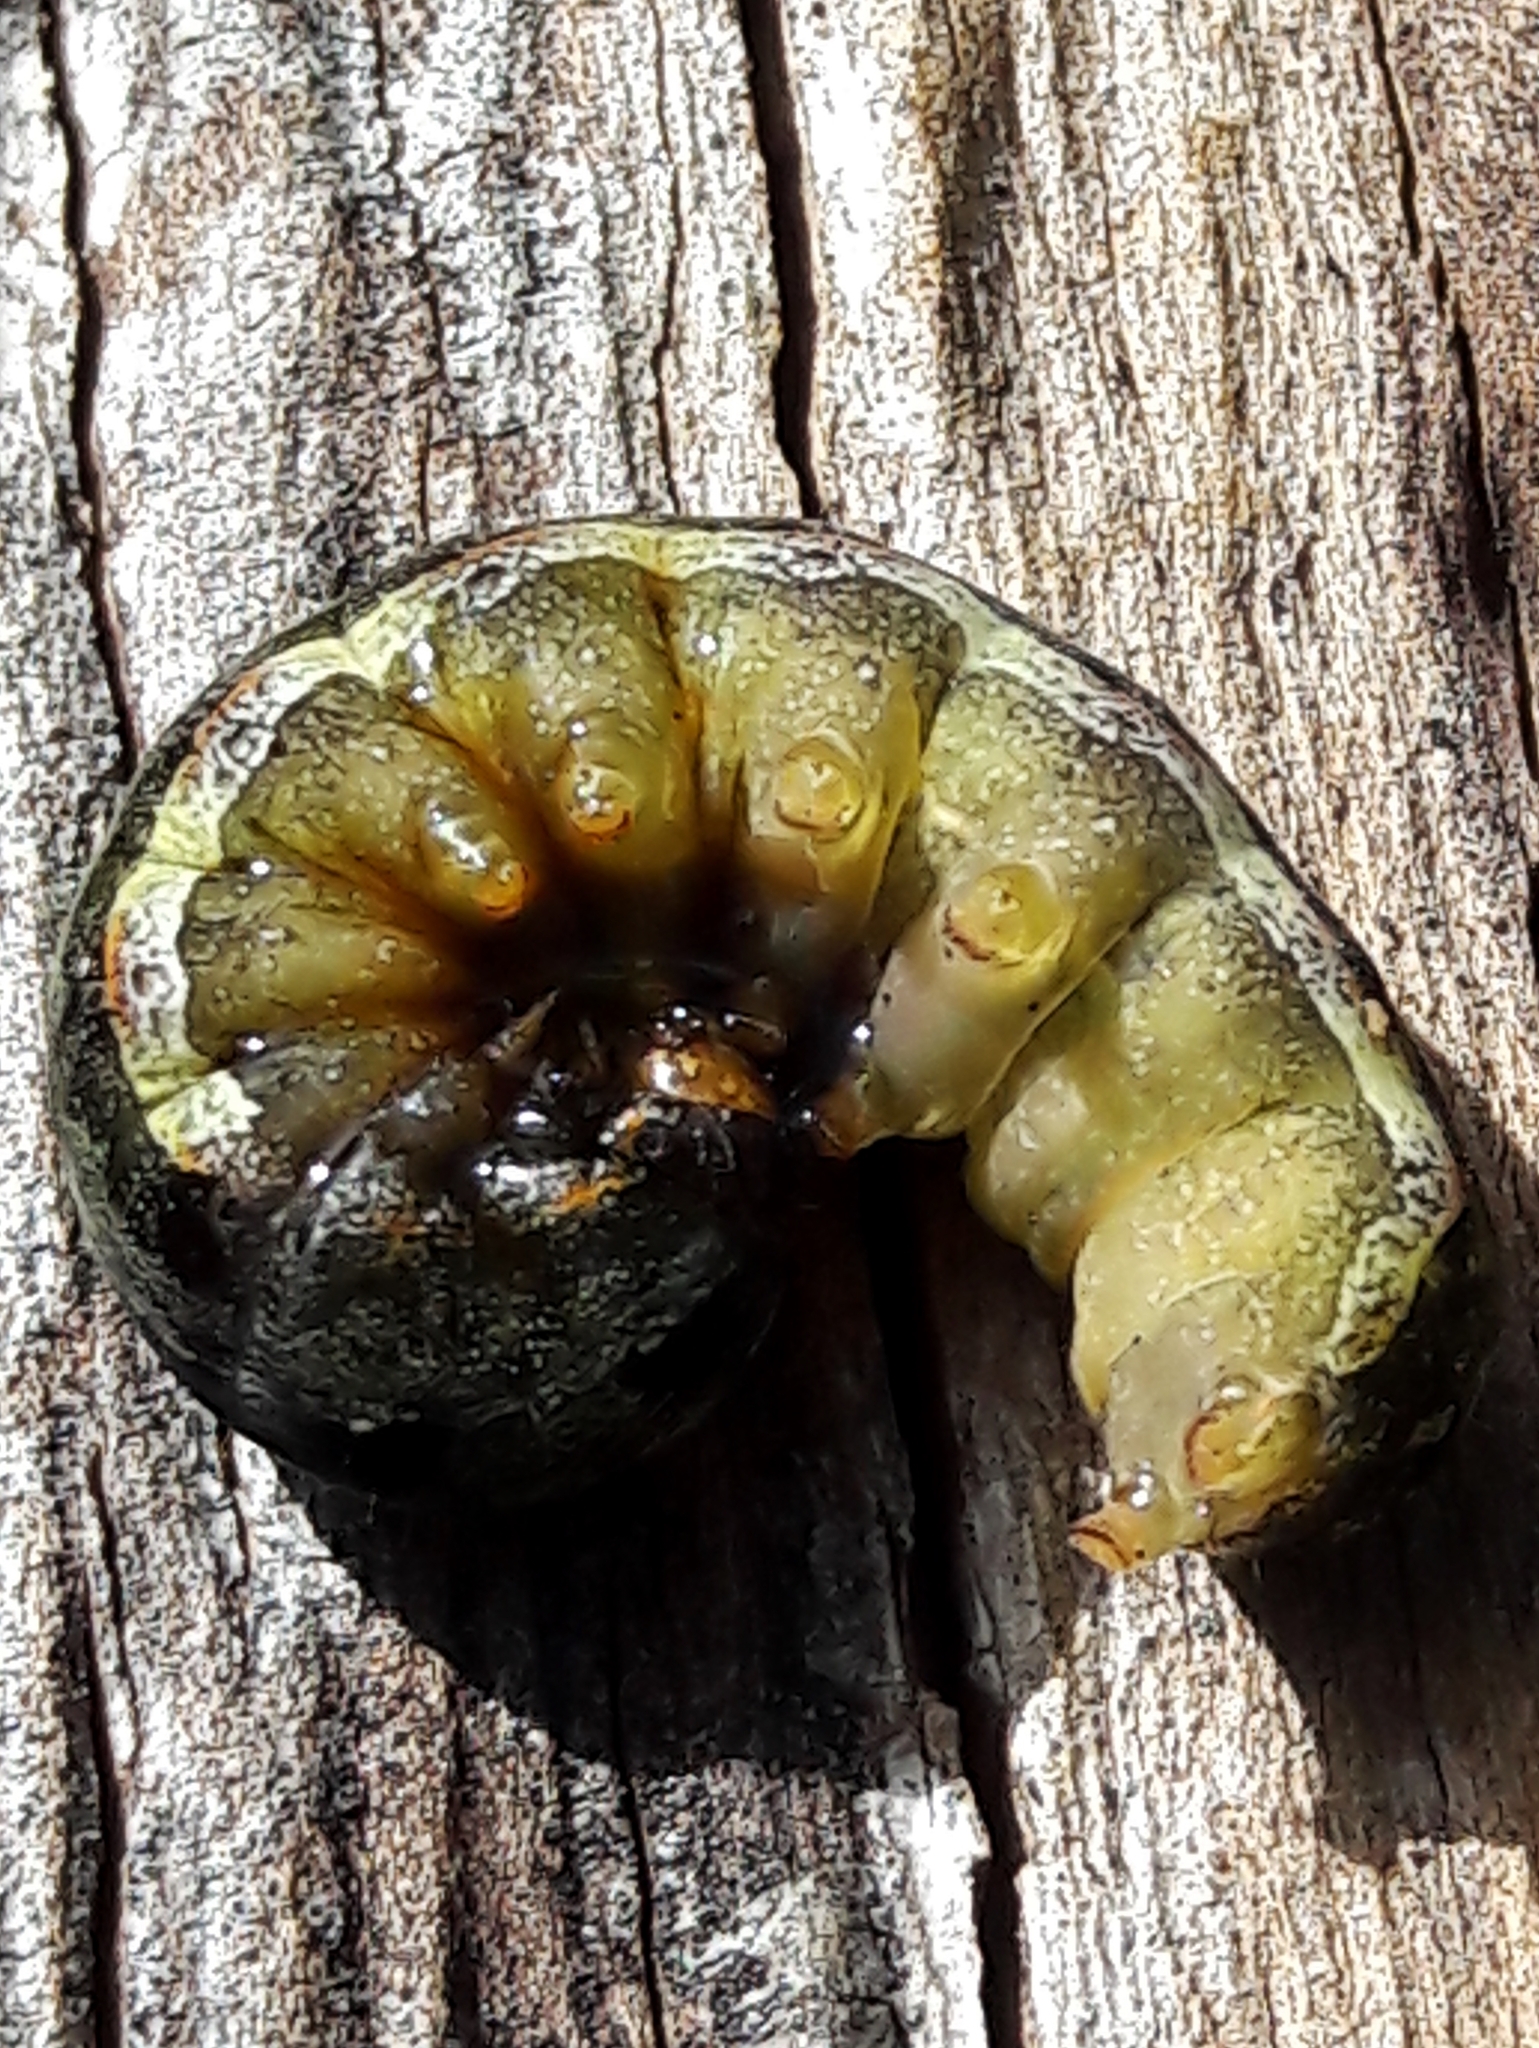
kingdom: Animalia
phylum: Arthropoda
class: Insecta
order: Lepidoptera
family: Noctuidae
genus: Spodoptera
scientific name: Spodoptera eridania
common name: Southern army worm
